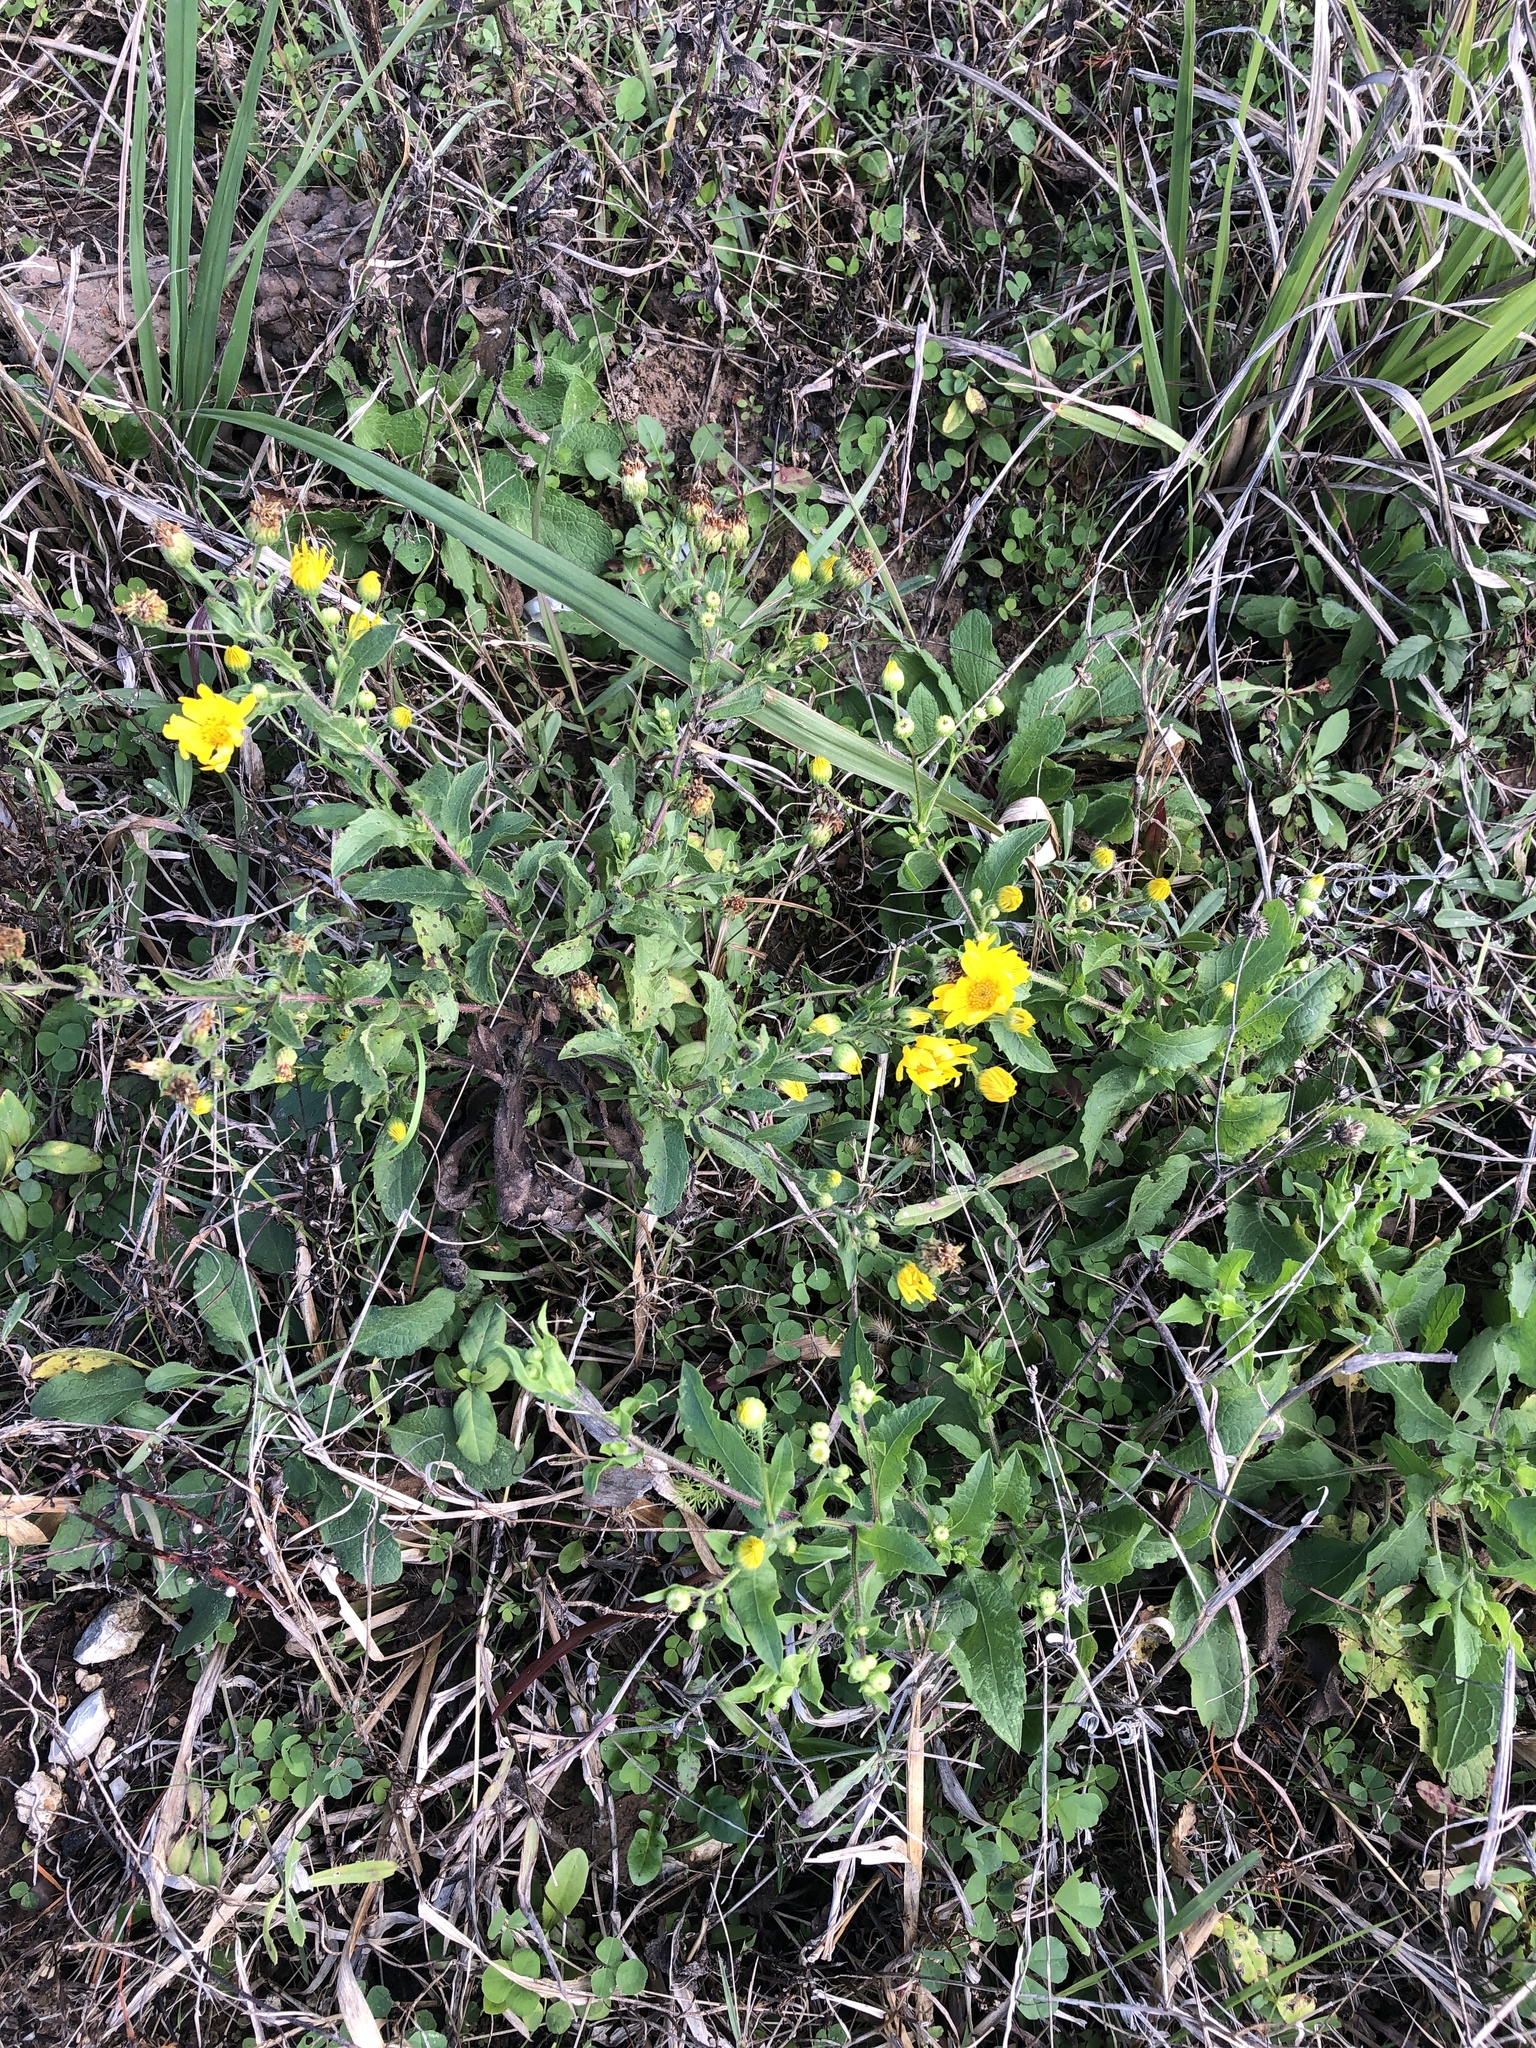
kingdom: Plantae
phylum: Tracheophyta
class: Magnoliopsida
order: Asterales
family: Asteraceae
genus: Heterotheca
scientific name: Heterotheca subaxillaris
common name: Camphorweed
